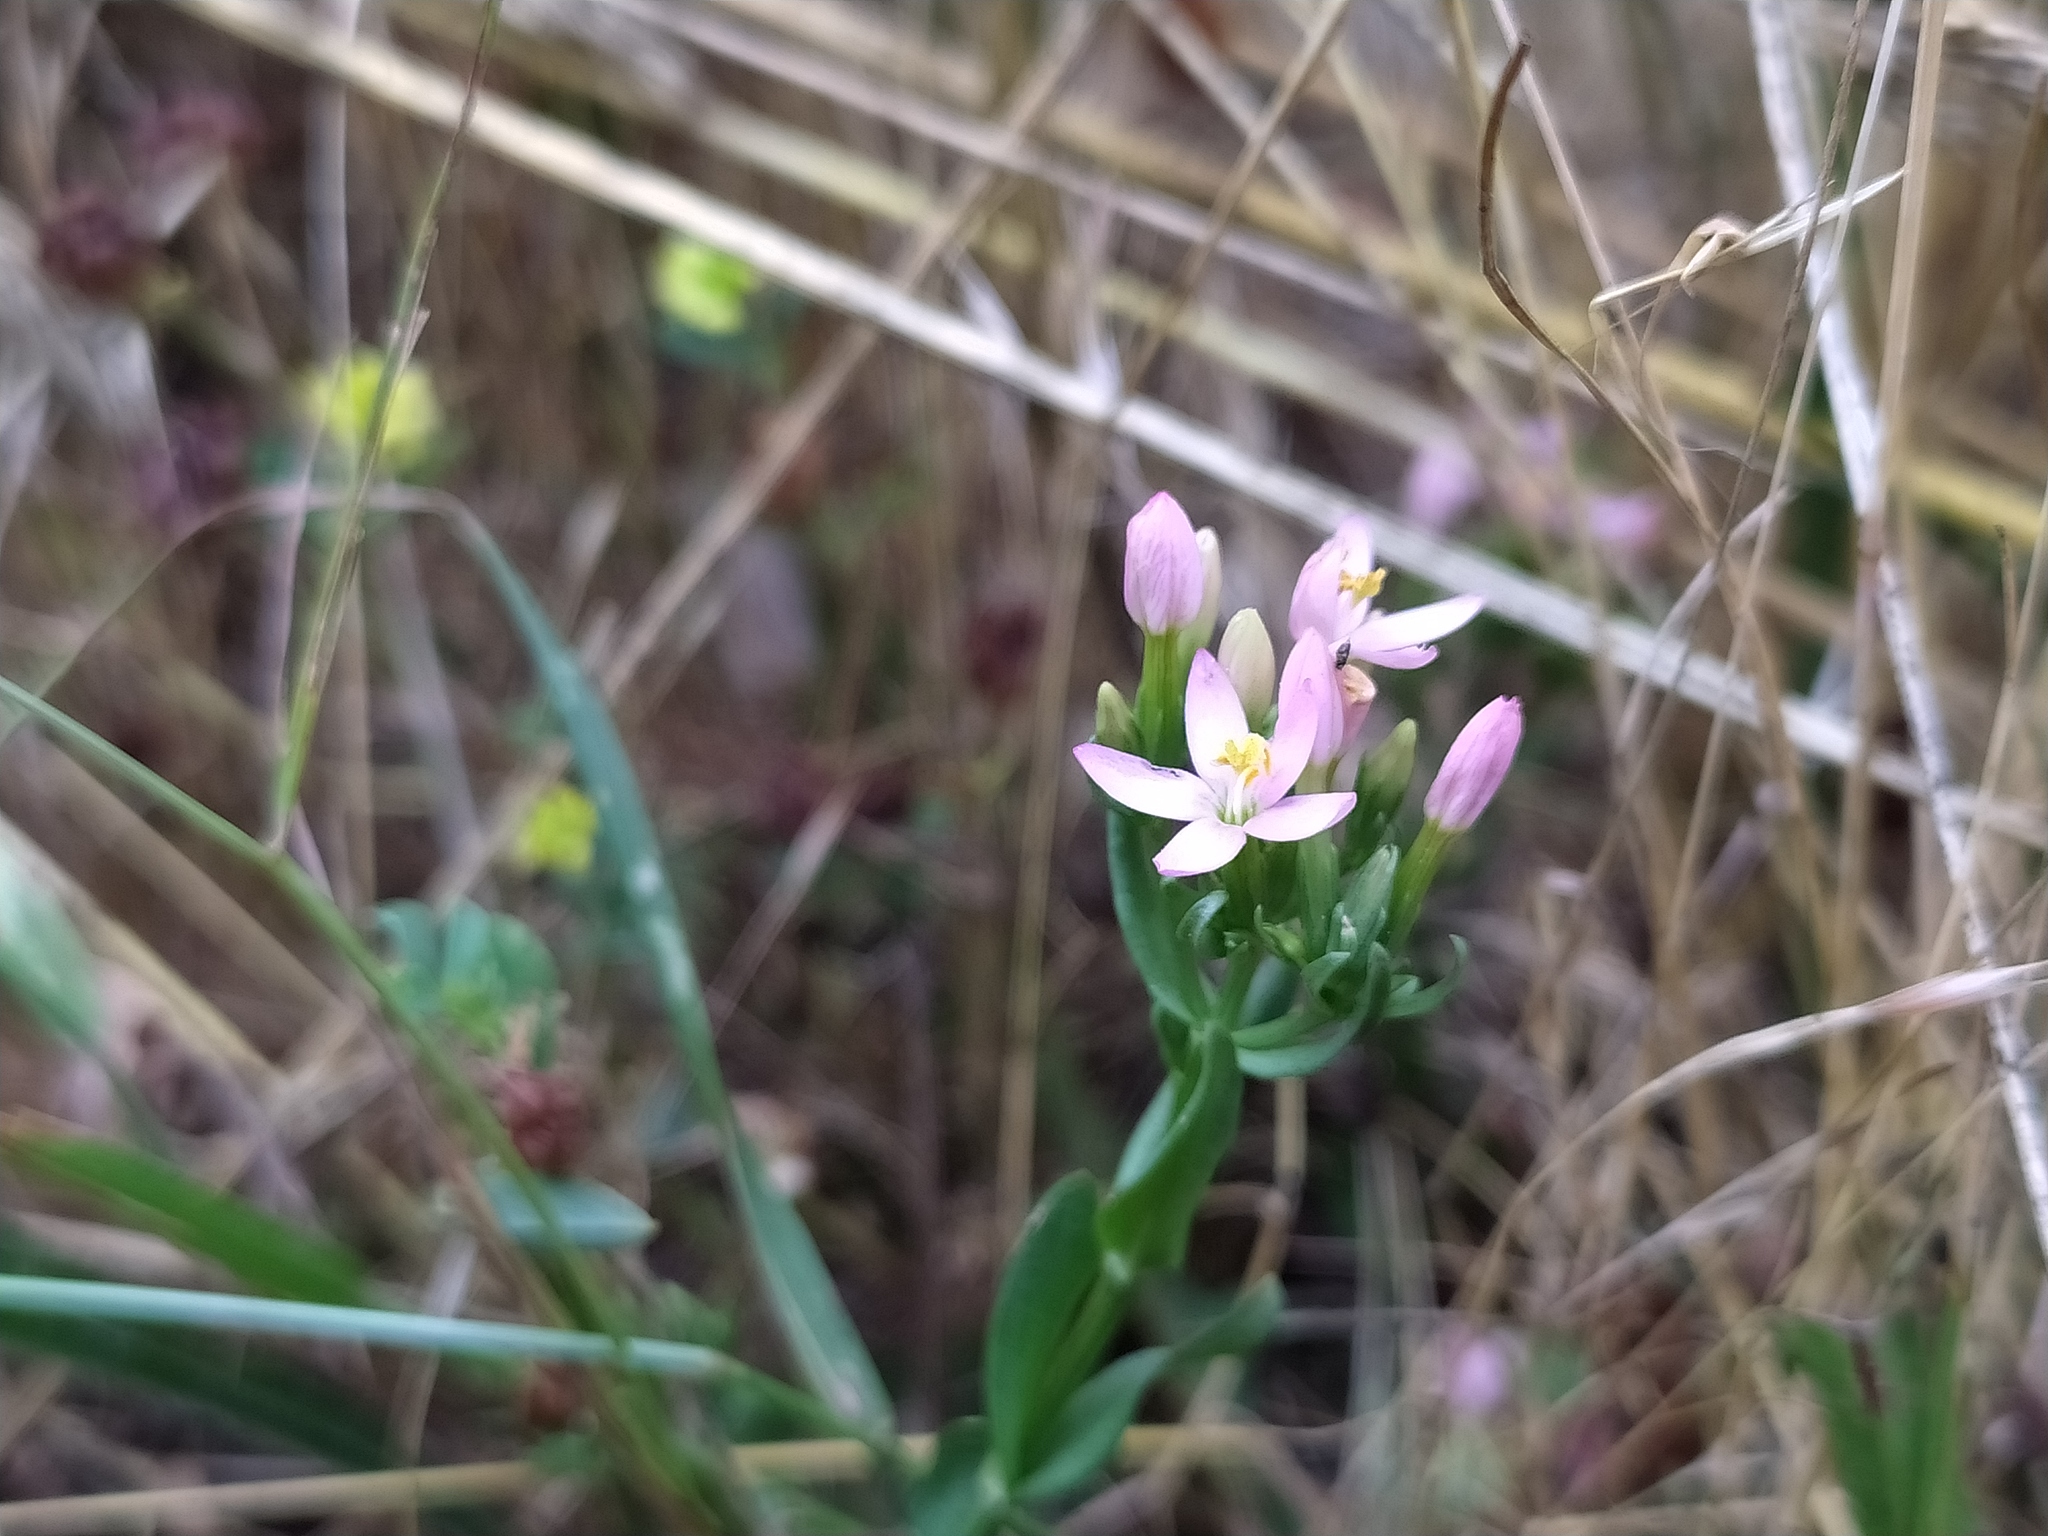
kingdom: Plantae
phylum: Tracheophyta
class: Magnoliopsida
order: Gentianales
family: Gentianaceae
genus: Centaurium
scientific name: Centaurium erythraea
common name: Common centaury
